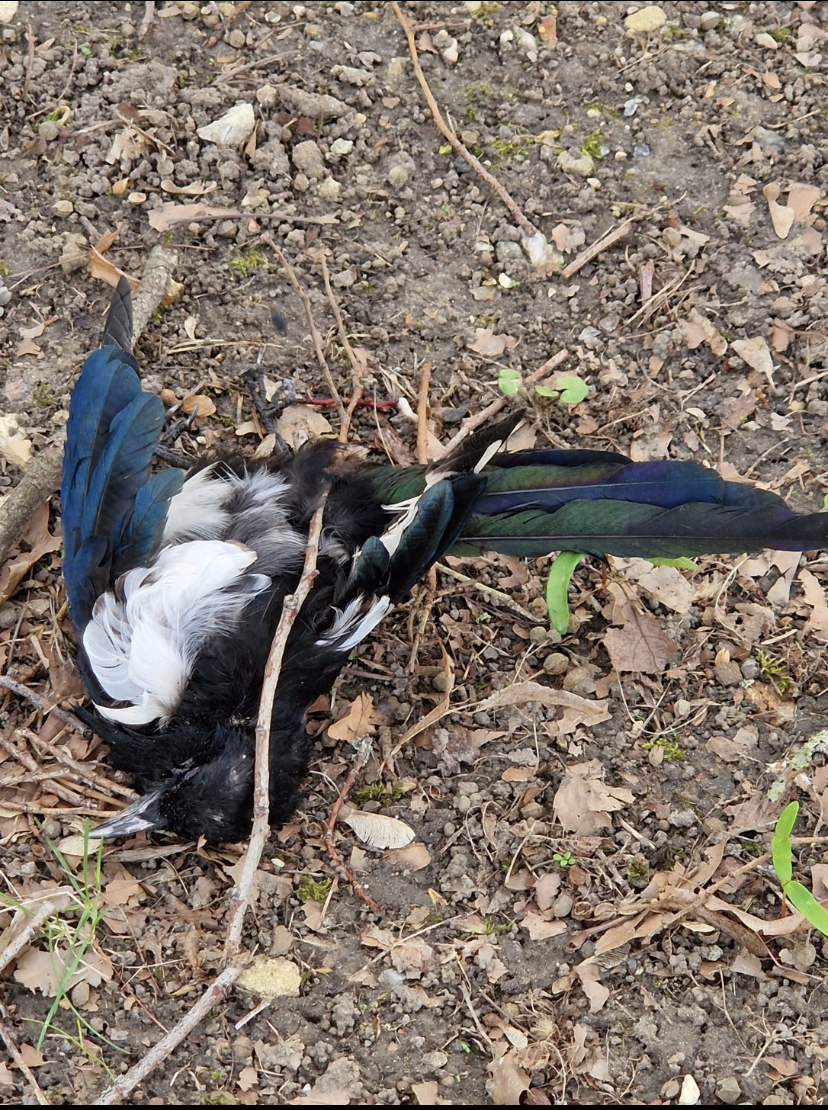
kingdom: Animalia
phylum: Chordata
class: Aves
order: Passeriformes
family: Corvidae
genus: Pica
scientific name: Pica pica
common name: Eurasian magpie
